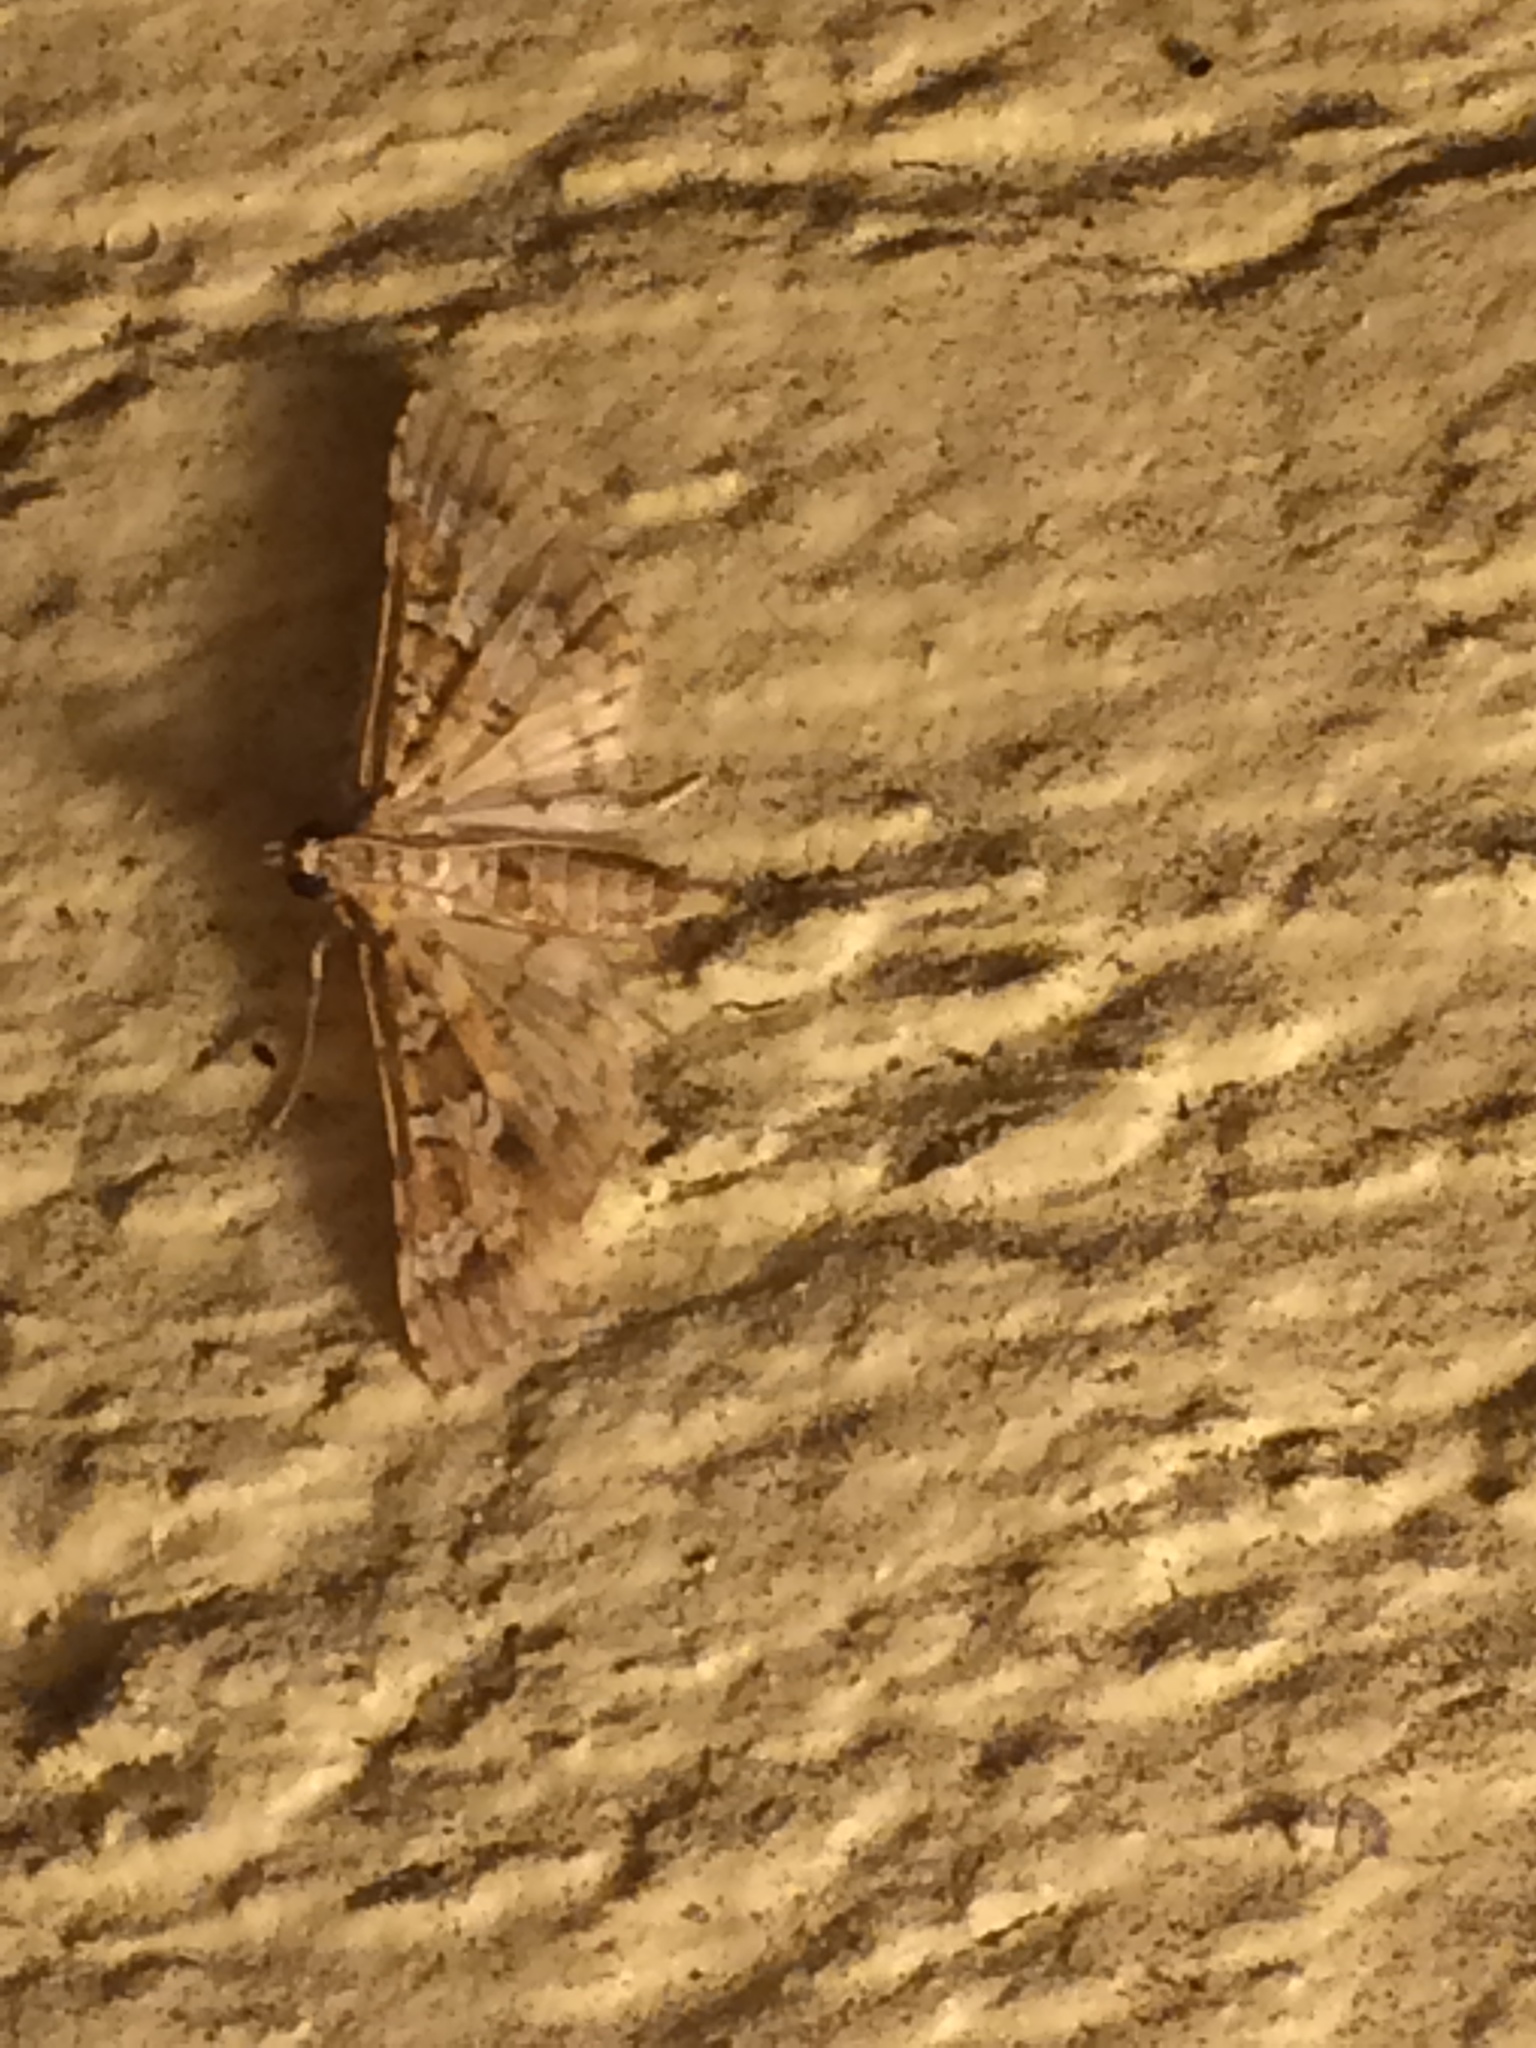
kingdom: Animalia
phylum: Arthropoda
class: Insecta
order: Lepidoptera
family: Crambidae
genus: Samea
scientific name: Samea multiplicalis
